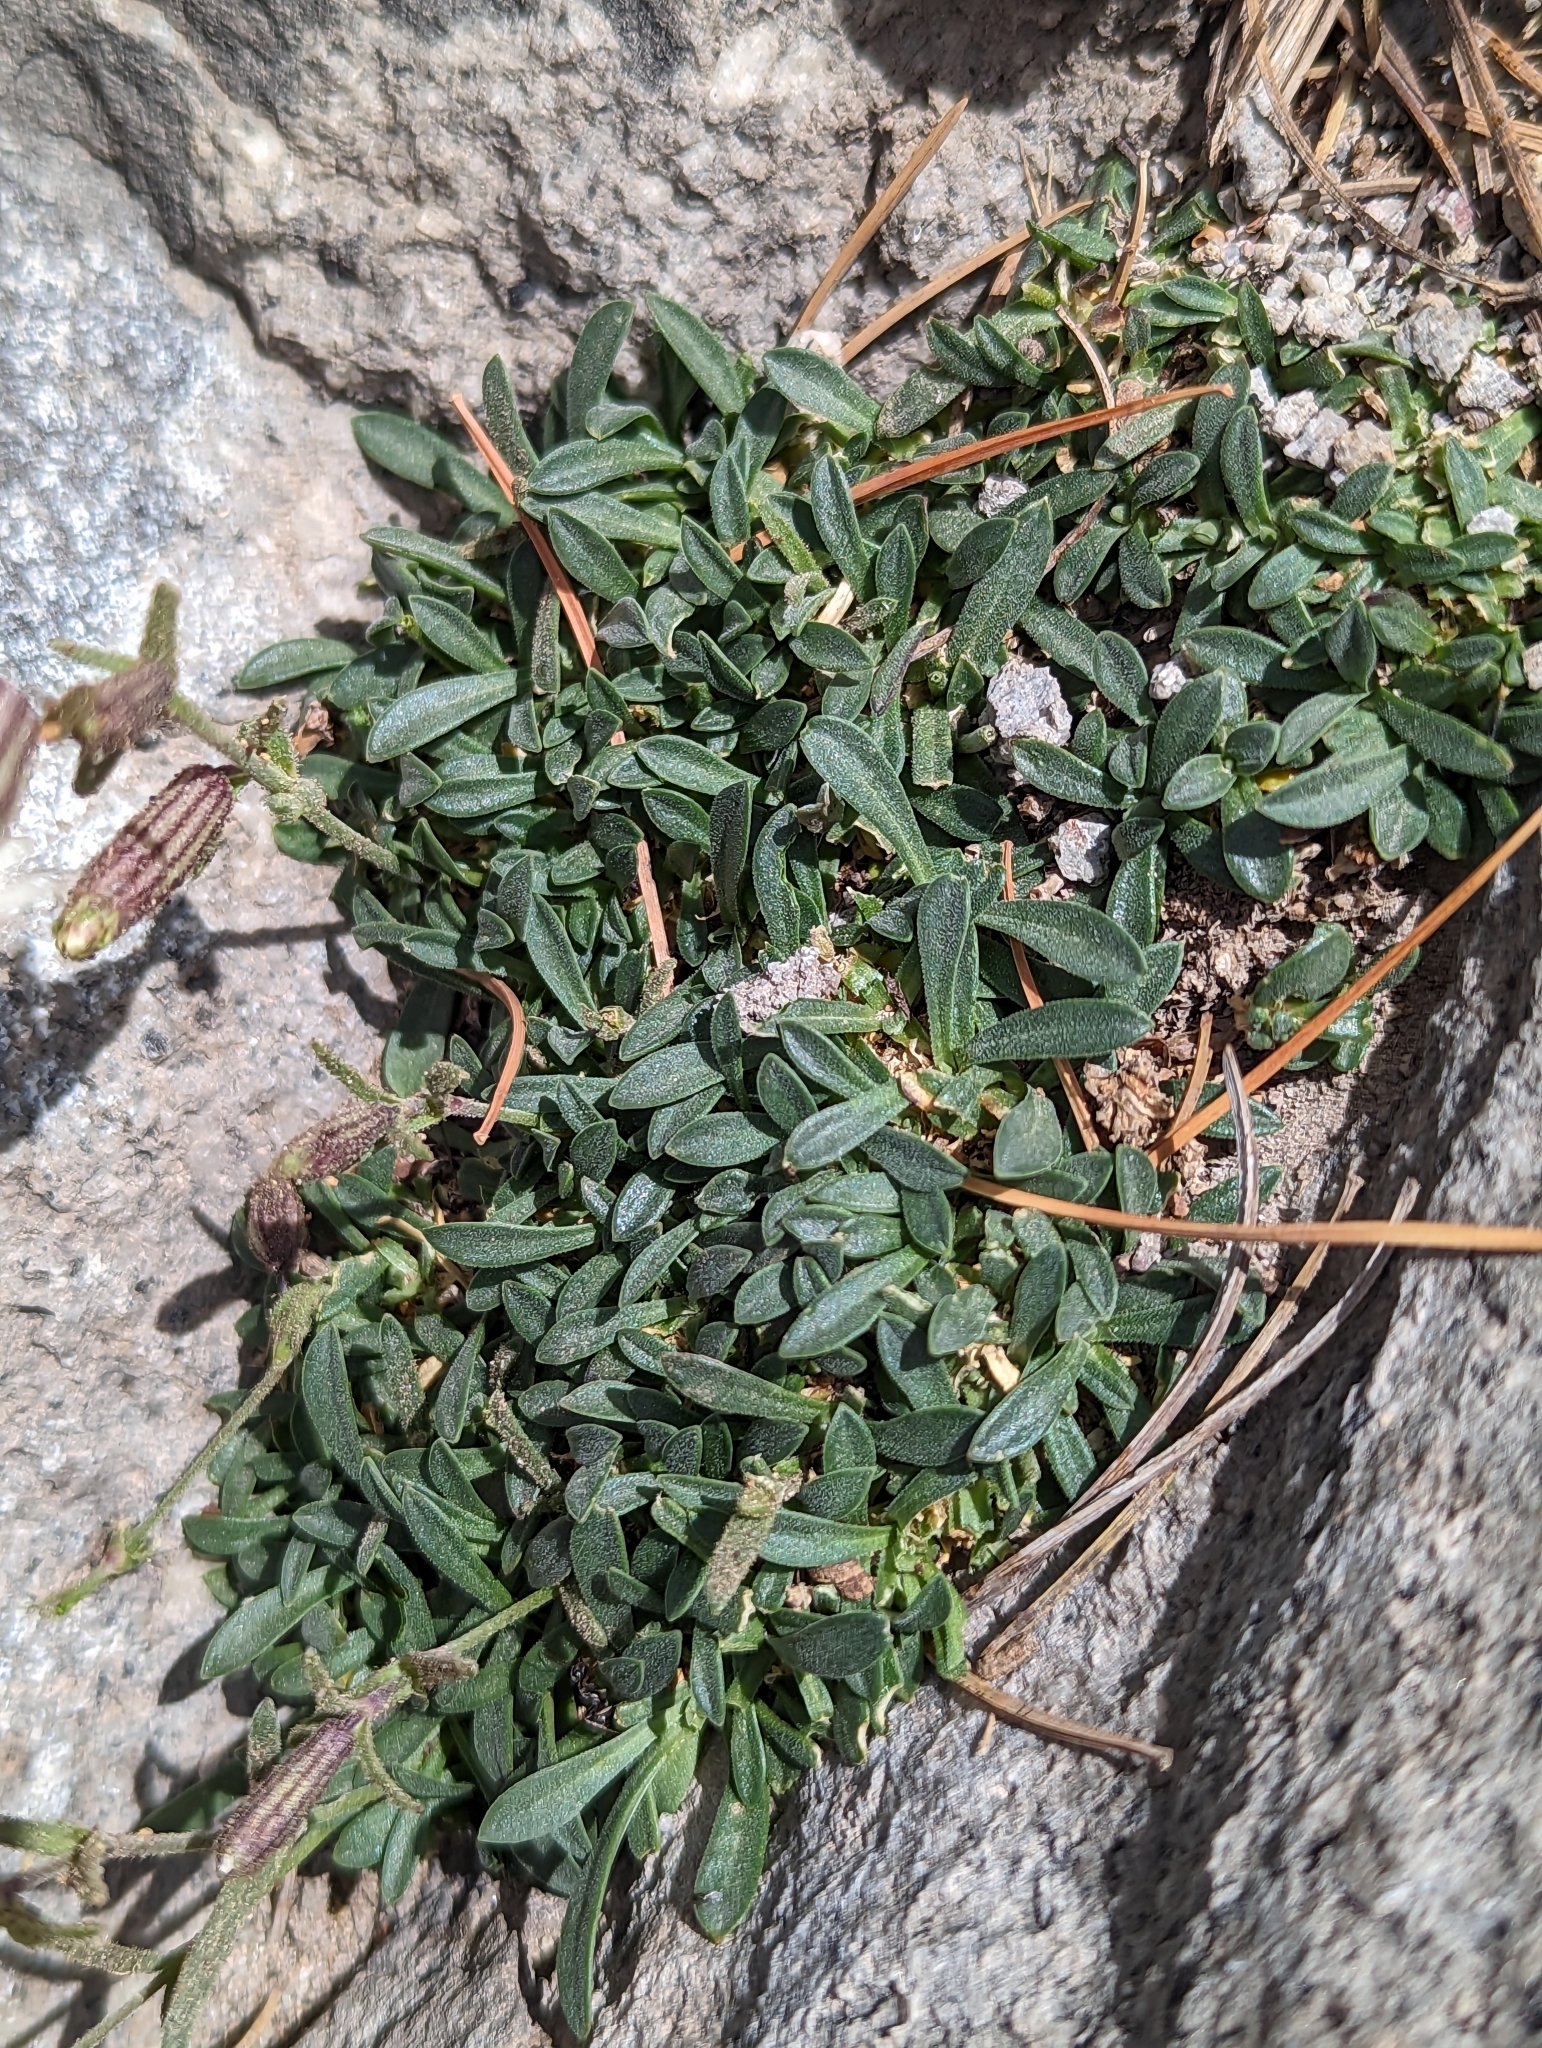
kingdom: Plantae
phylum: Tracheophyta
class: Magnoliopsida
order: Caryophyllales
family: Caryophyllaceae
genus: Silene
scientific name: Silene sargentii
